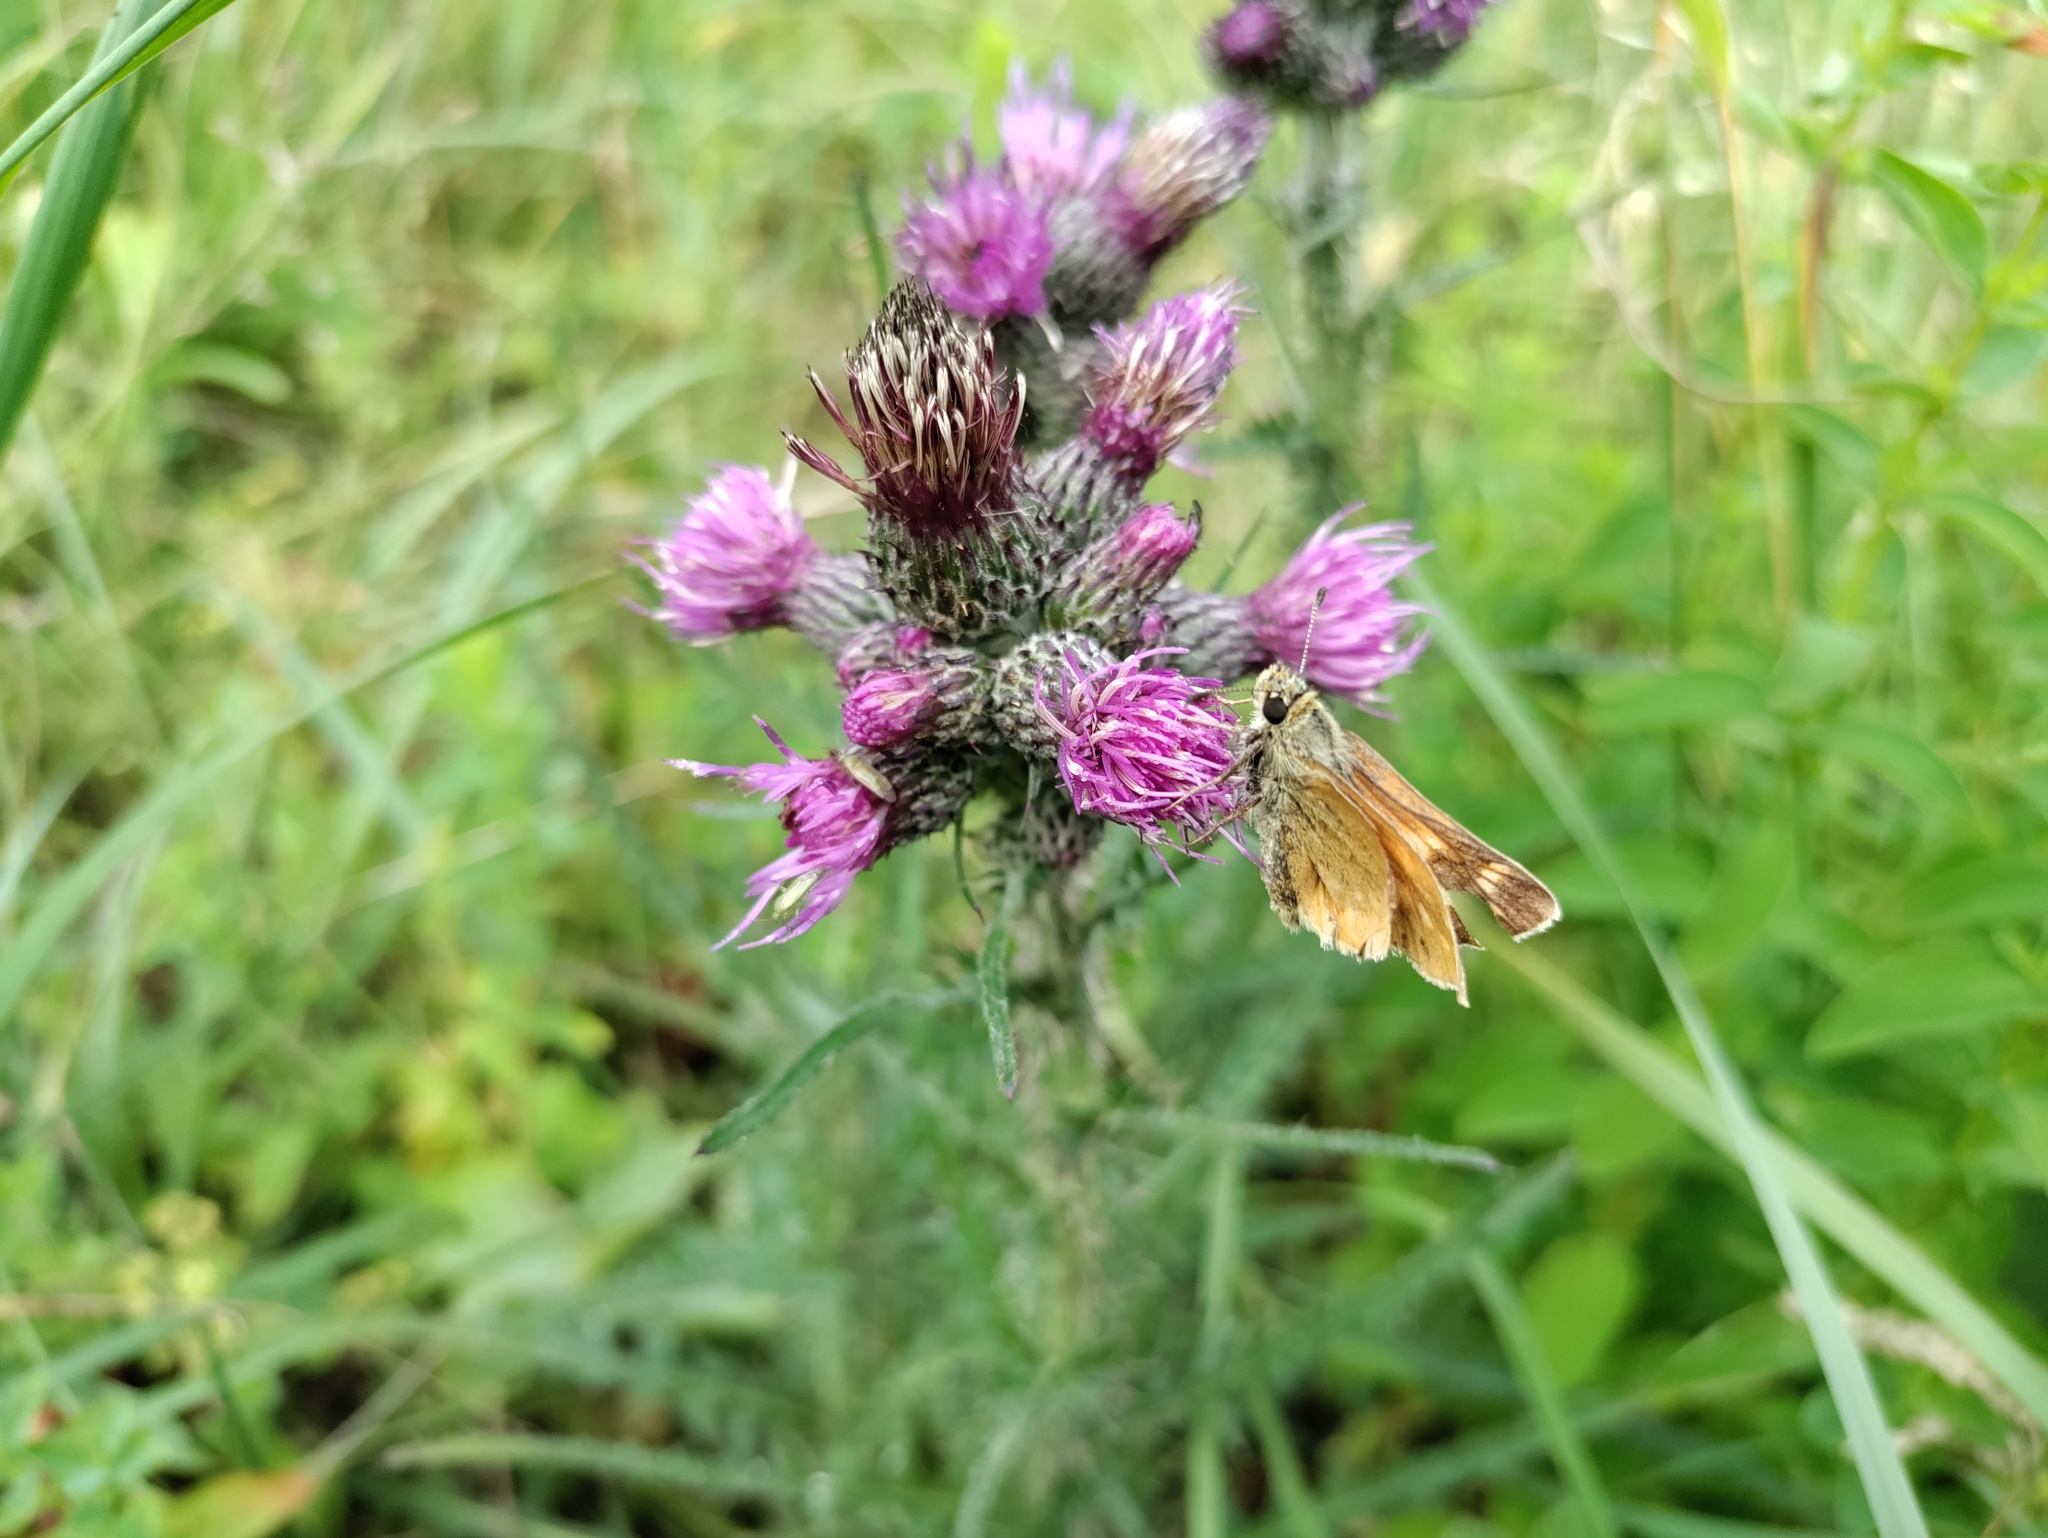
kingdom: Animalia
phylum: Arthropoda
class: Insecta
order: Lepidoptera
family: Hesperiidae
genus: Ochlodes
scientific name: Ochlodes venata
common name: Large skipper
